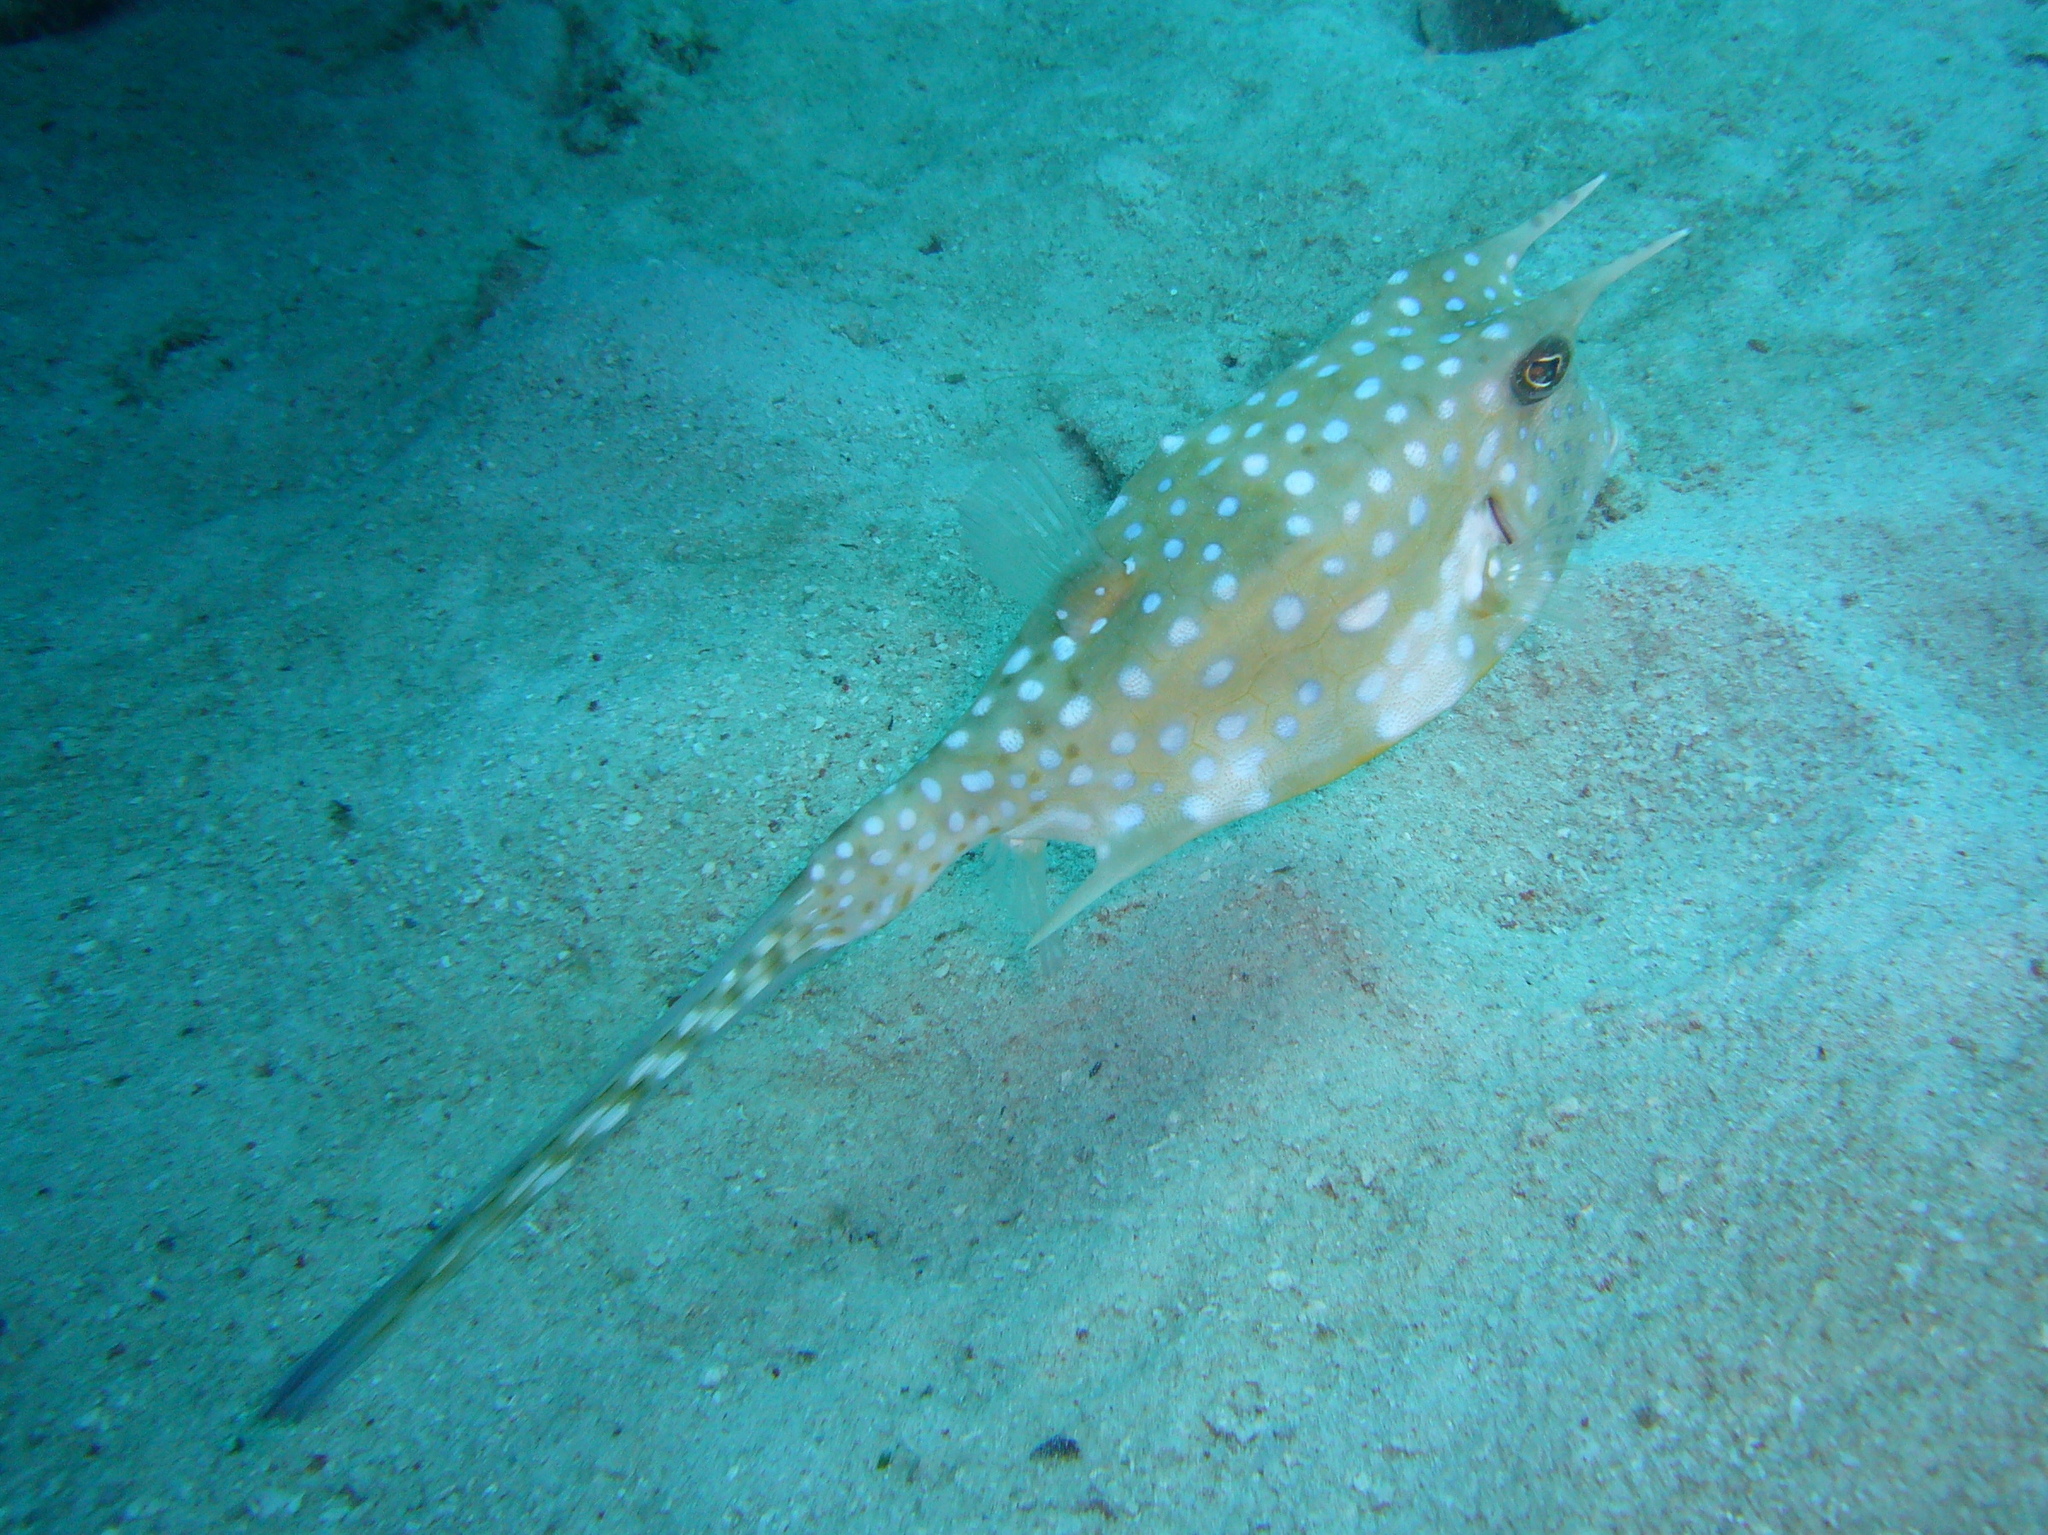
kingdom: Animalia
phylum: Chordata
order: Tetraodontiformes
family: Ostraciidae
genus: Lactoria
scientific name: Lactoria cornuta
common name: Longhorn cowfish
